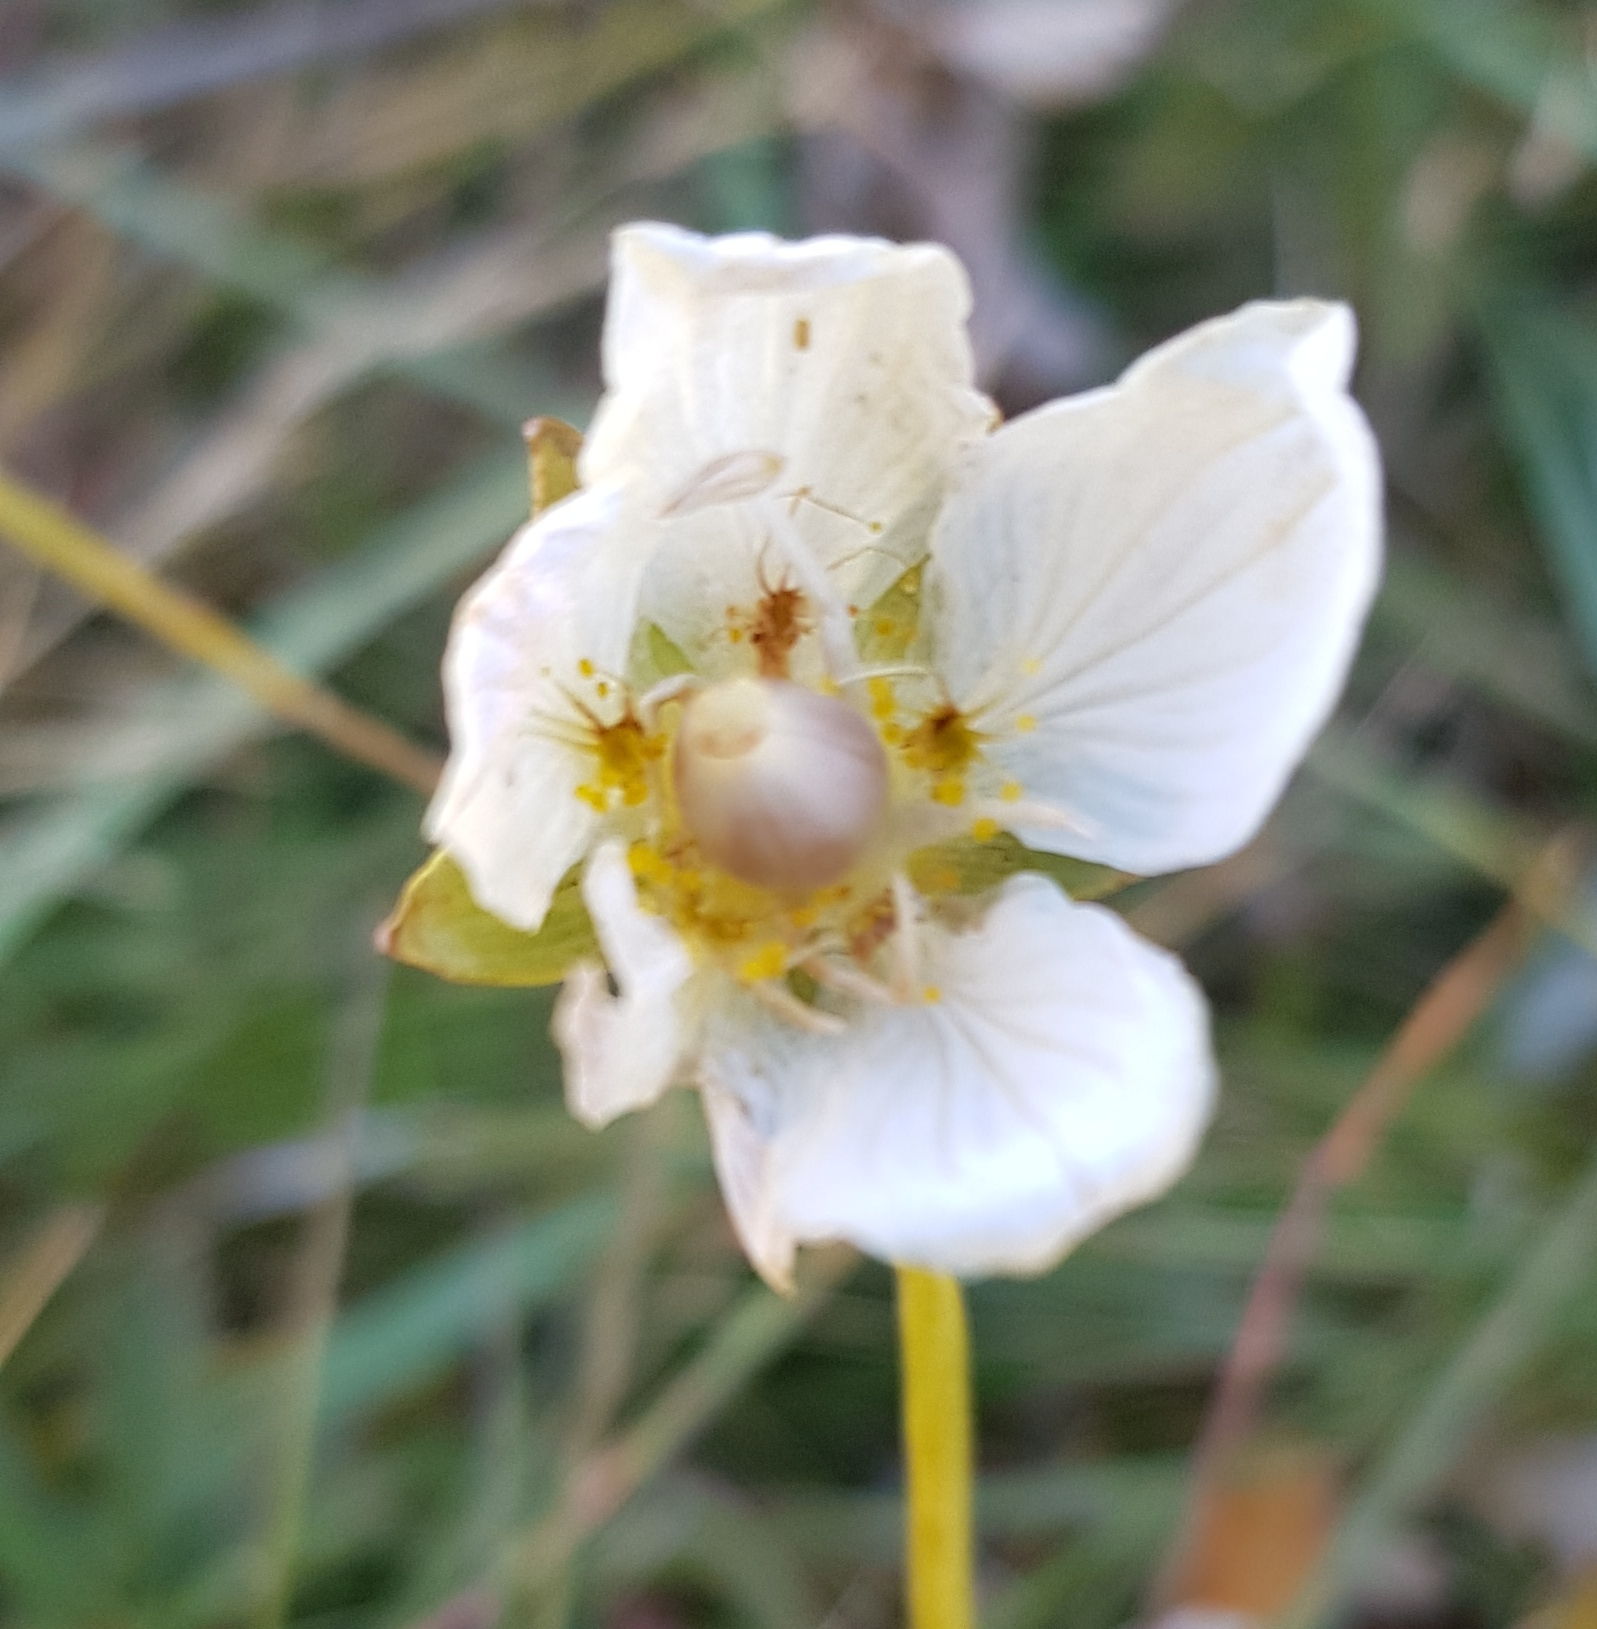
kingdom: Plantae
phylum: Tracheophyta
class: Magnoliopsida
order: Celastrales
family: Parnassiaceae
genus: Parnassia
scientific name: Parnassia palustris
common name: Grass-of-parnassus
